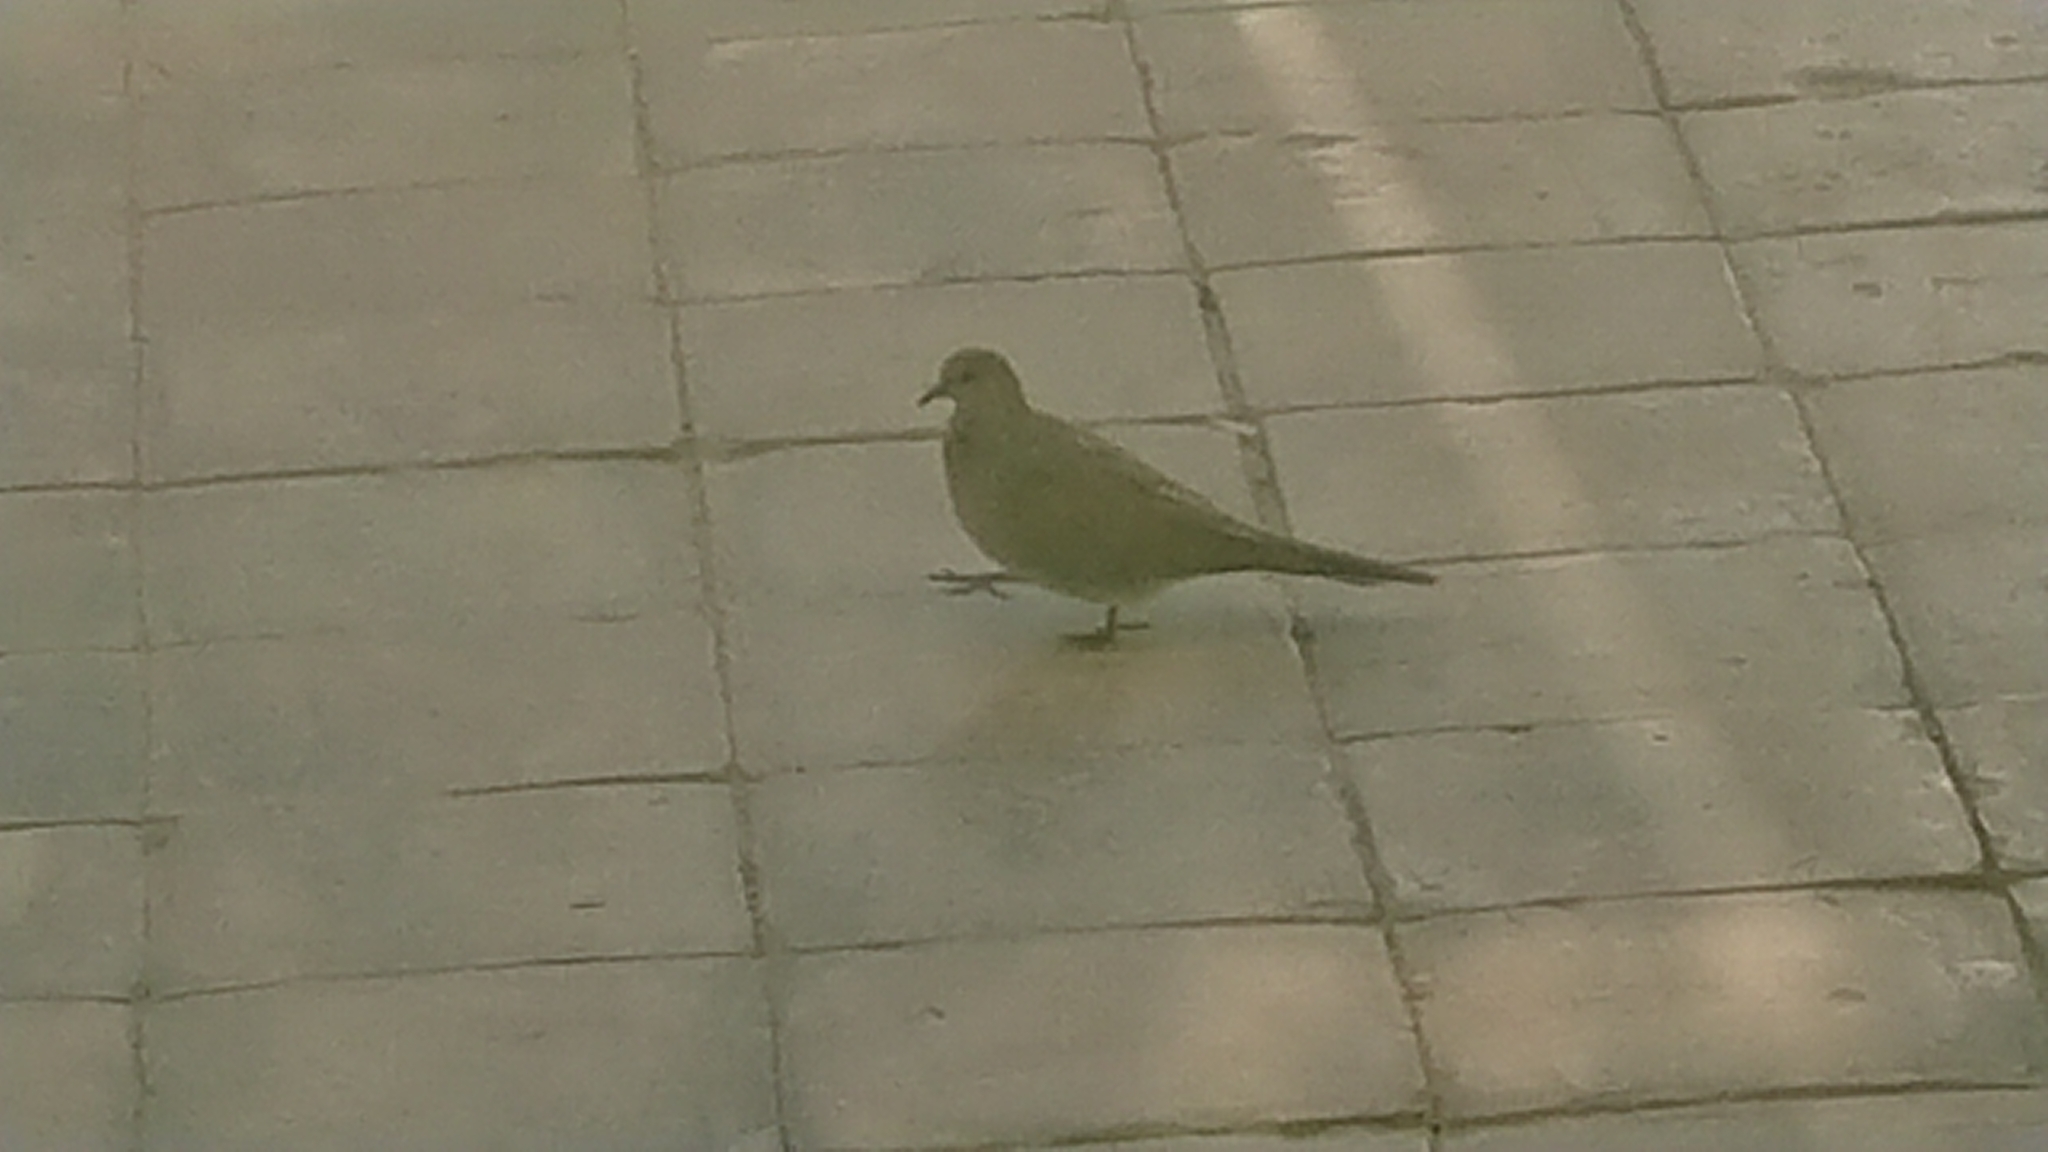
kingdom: Animalia
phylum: Chordata
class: Aves
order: Columbiformes
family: Columbidae
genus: Spilopelia
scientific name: Spilopelia senegalensis
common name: Laughing dove
